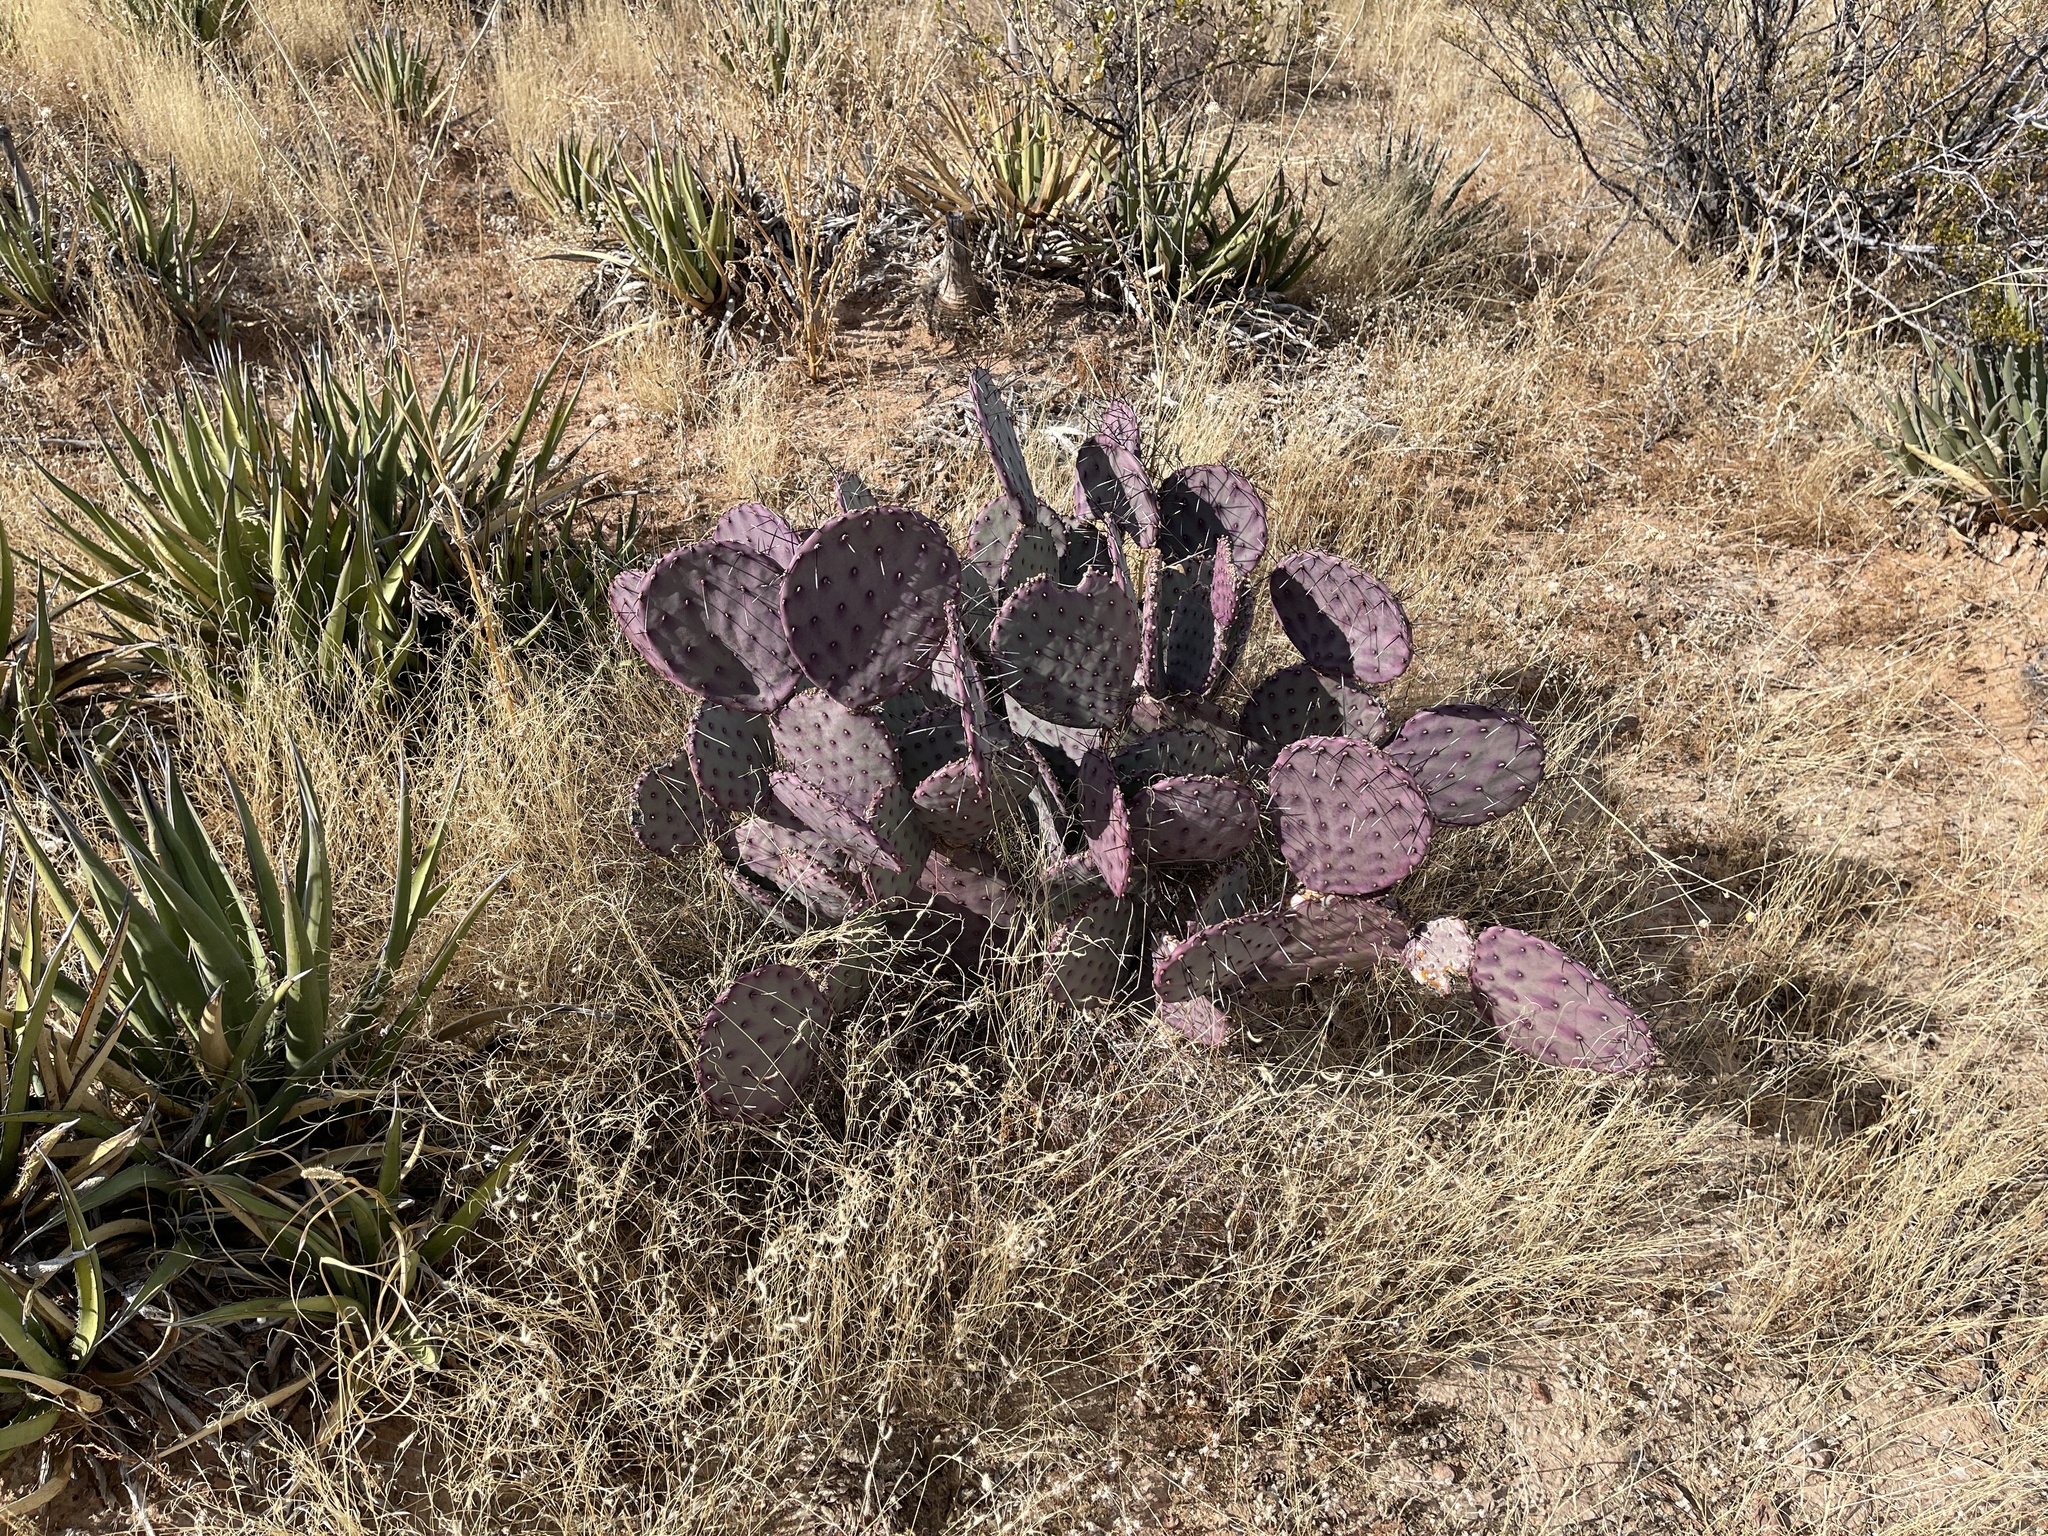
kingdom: Plantae
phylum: Tracheophyta
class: Magnoliopsida
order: Caryophyllales
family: Cactaceae
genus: Opuntia
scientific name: Opuntia macrocentra
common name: Purple prickly-pear
